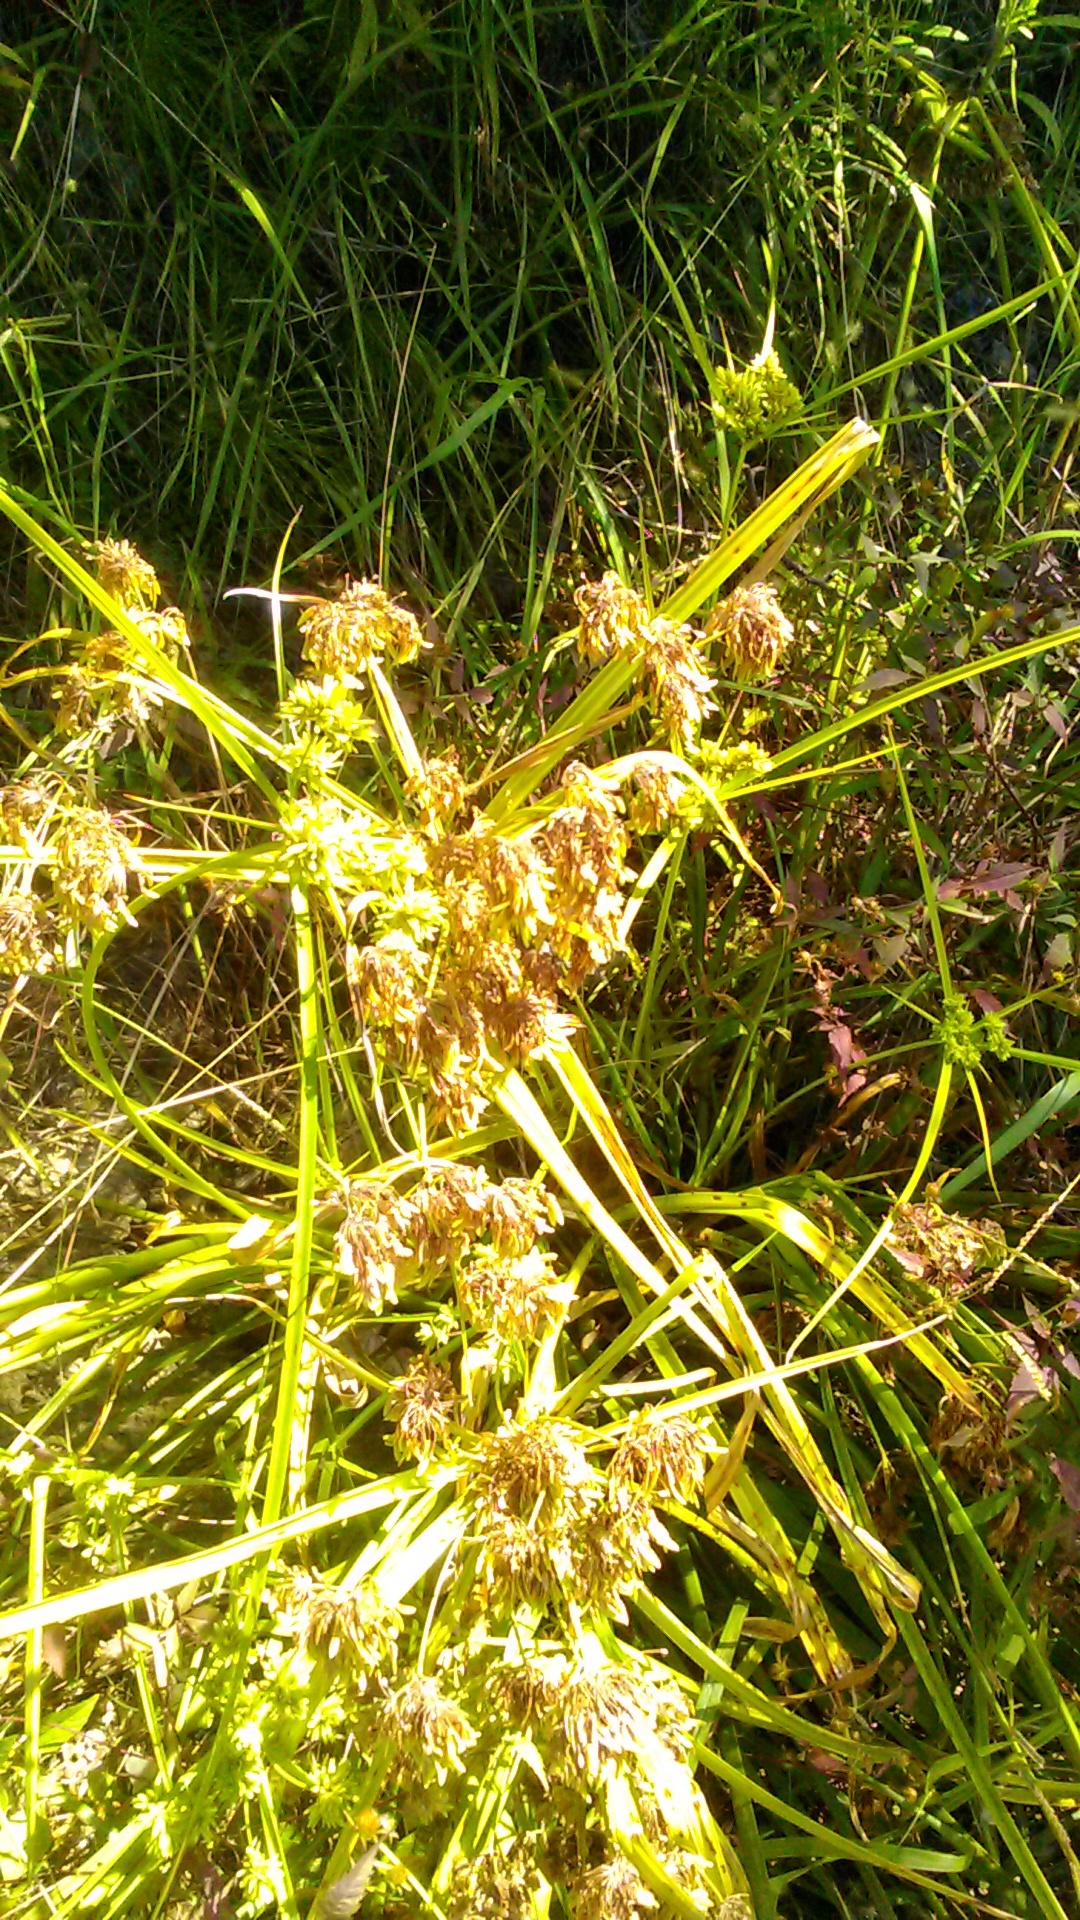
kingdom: Plantae
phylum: Tracheophyta
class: Liliopsida
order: Poales
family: Cyperaceae
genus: Cyperus
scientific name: Cyperus eragrostis
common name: Tall flatsedge
